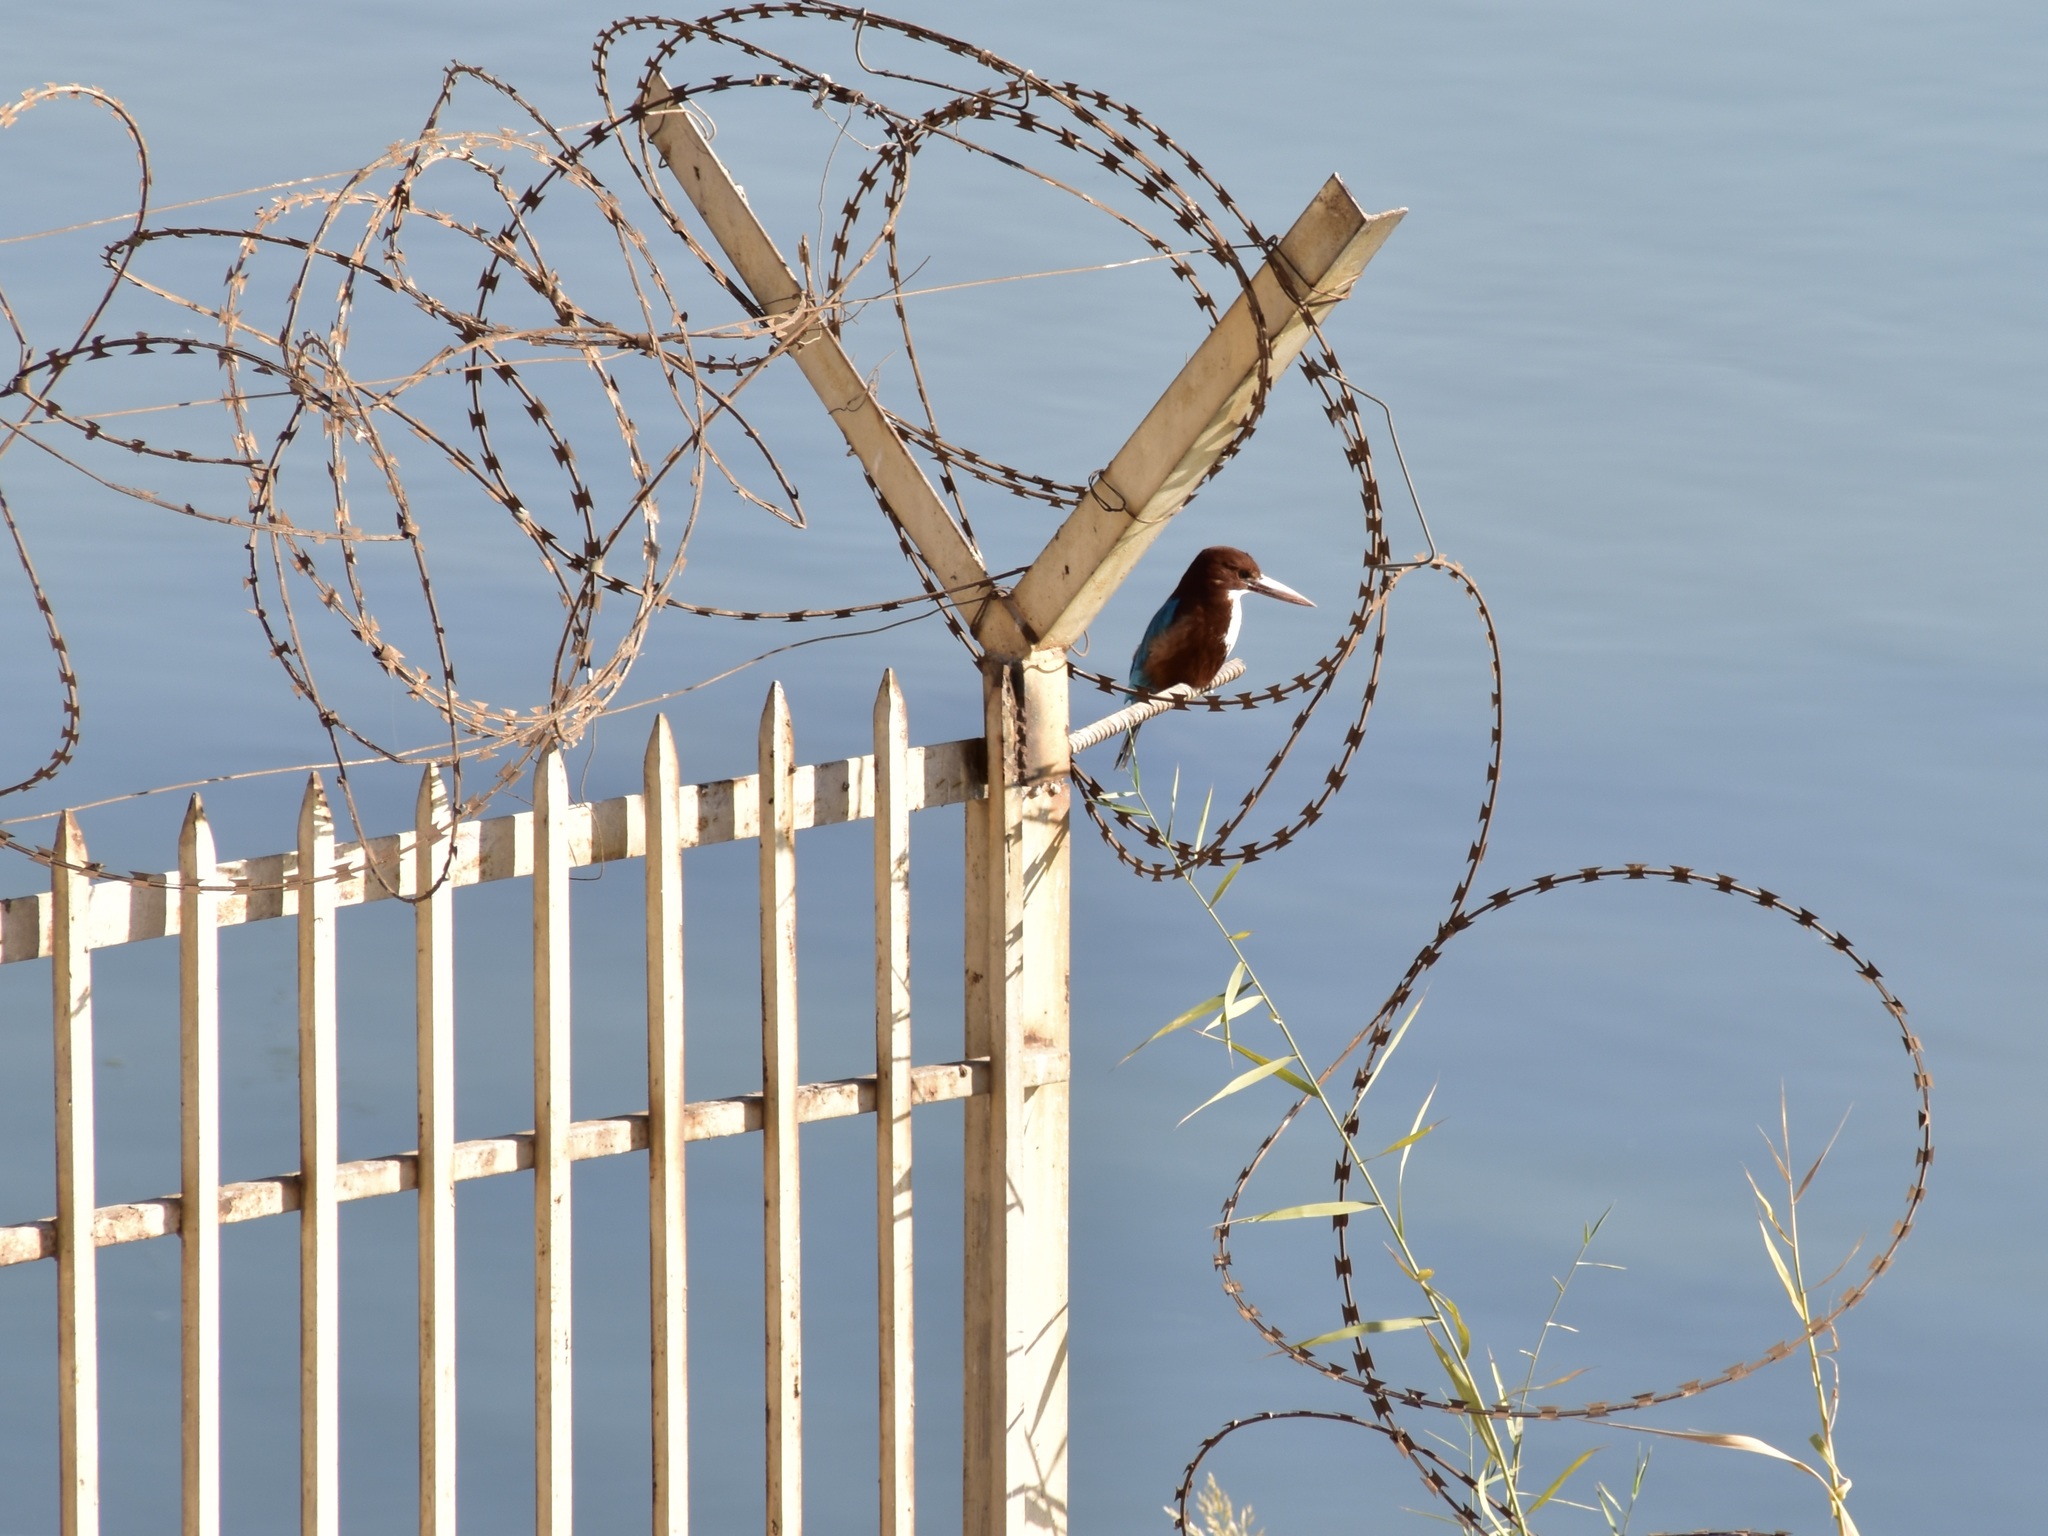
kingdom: Animalia
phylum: Chordata
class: Aves
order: Coraciiformes
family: Alcedinidae
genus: Halcyon
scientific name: Halcyon smyrnensis
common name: White-throated kingfisher
